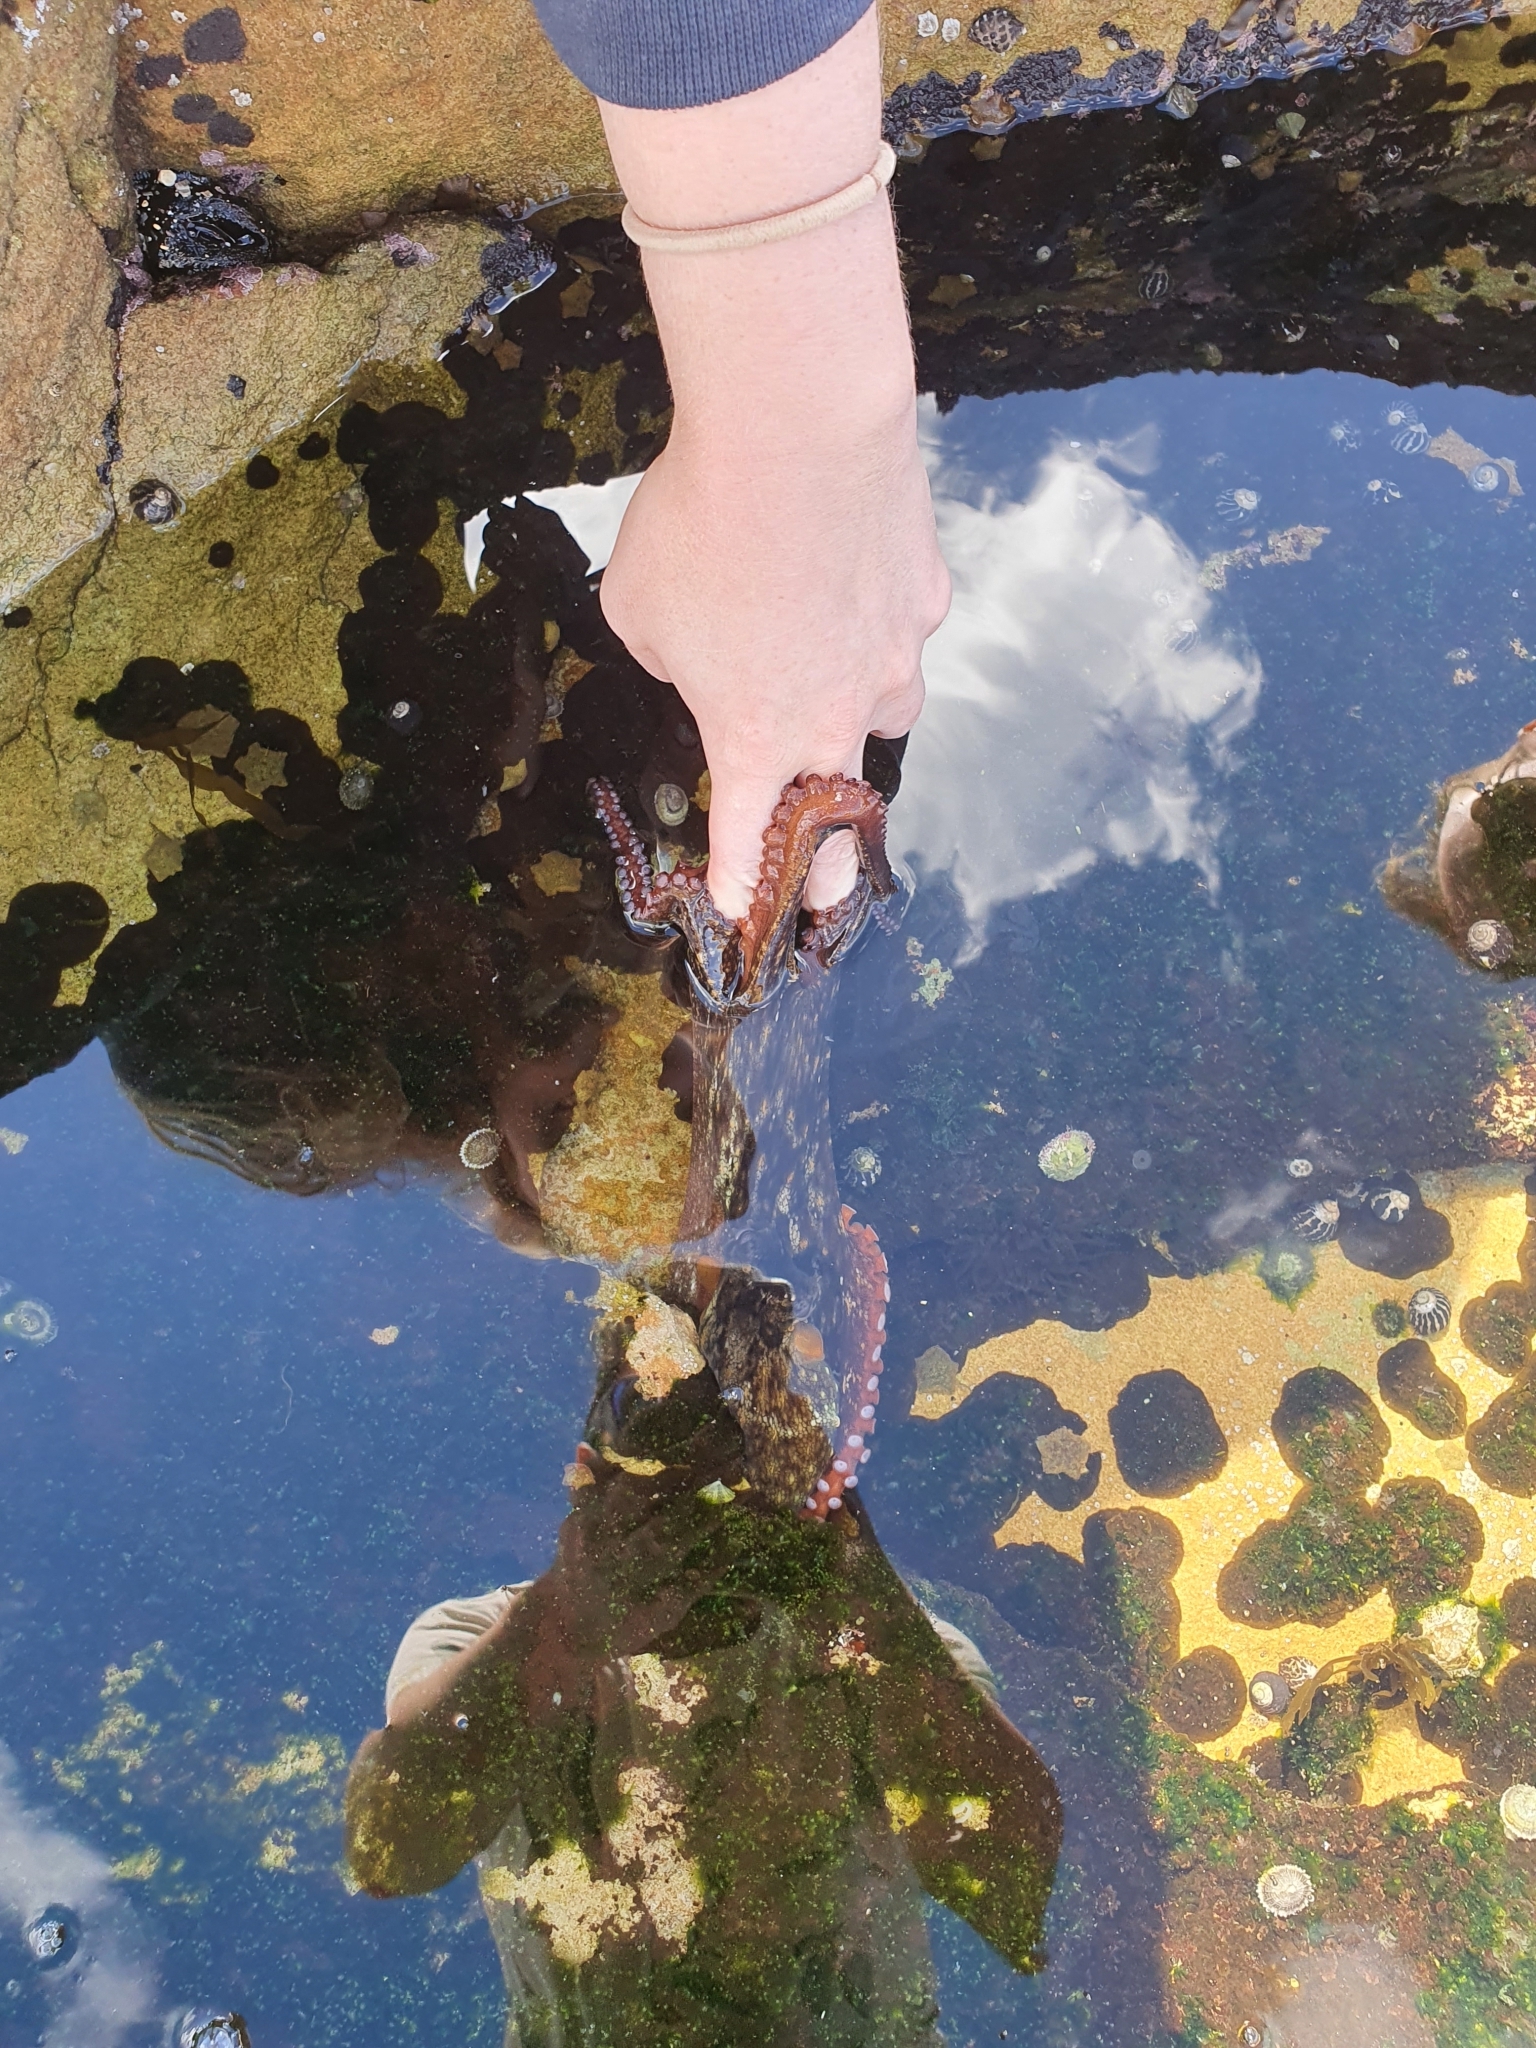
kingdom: Animalia
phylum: Mollusca
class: Cephalopoda
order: Octopoda
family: Octopodidae
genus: Octopus
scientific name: Octopus tetricus
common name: Sydney octopus
